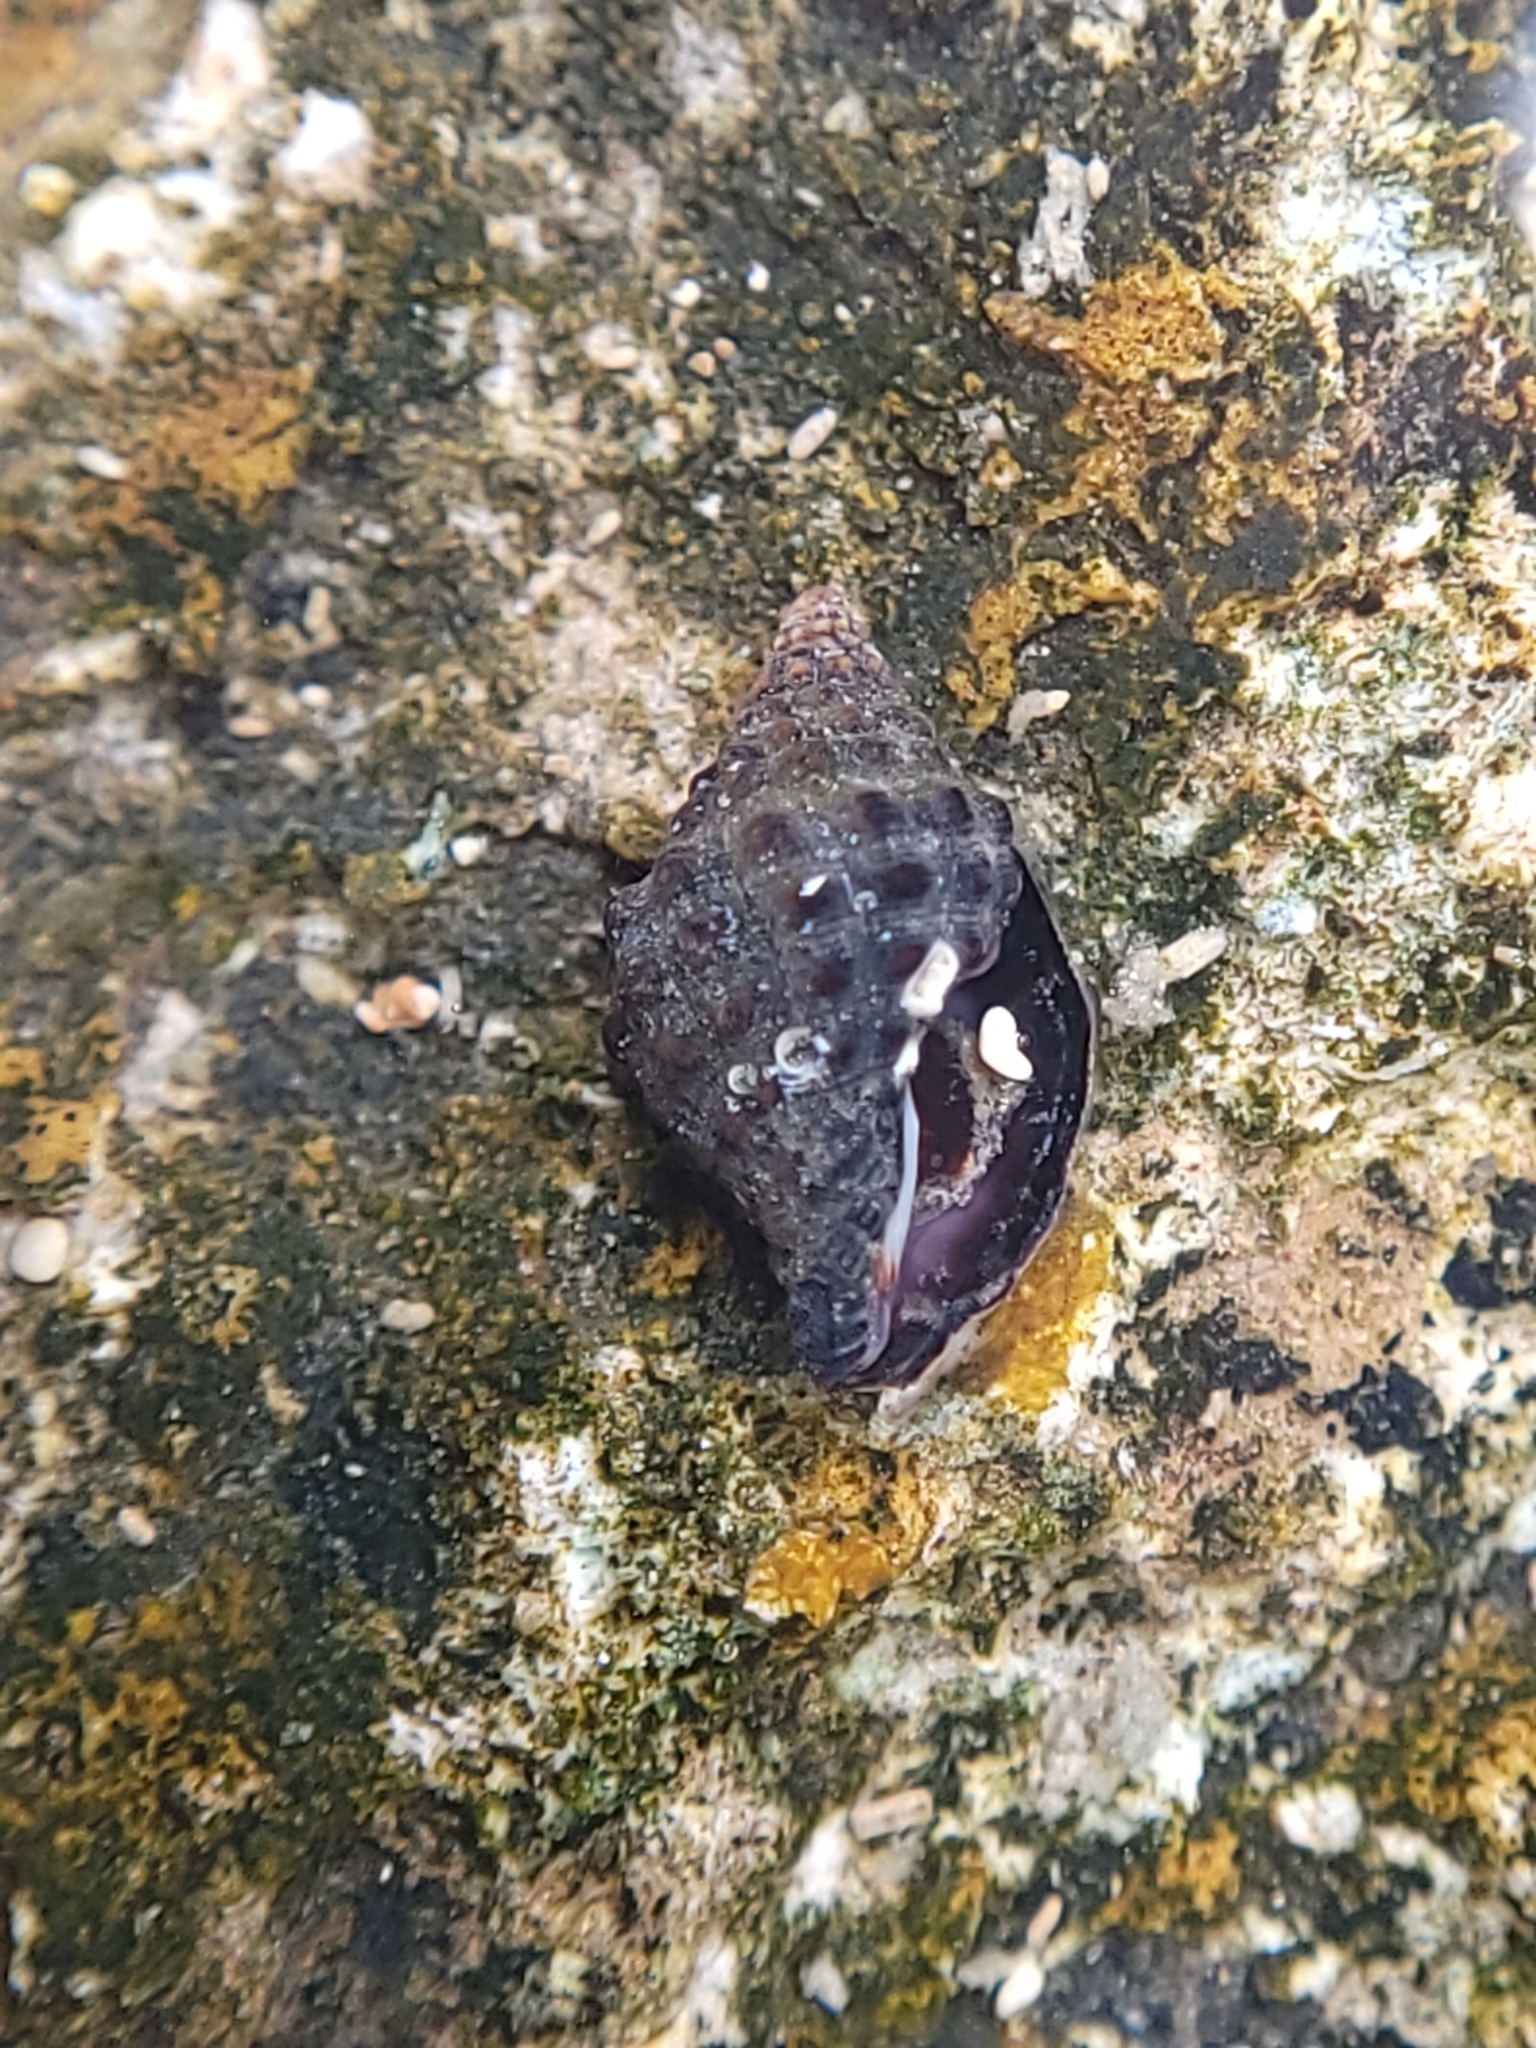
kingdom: Animalia
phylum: Mollusca
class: Gastropoda
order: Neogastropoda
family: Muricidae
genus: Tenguella
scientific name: Tenguella granulata
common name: Granular drupe
